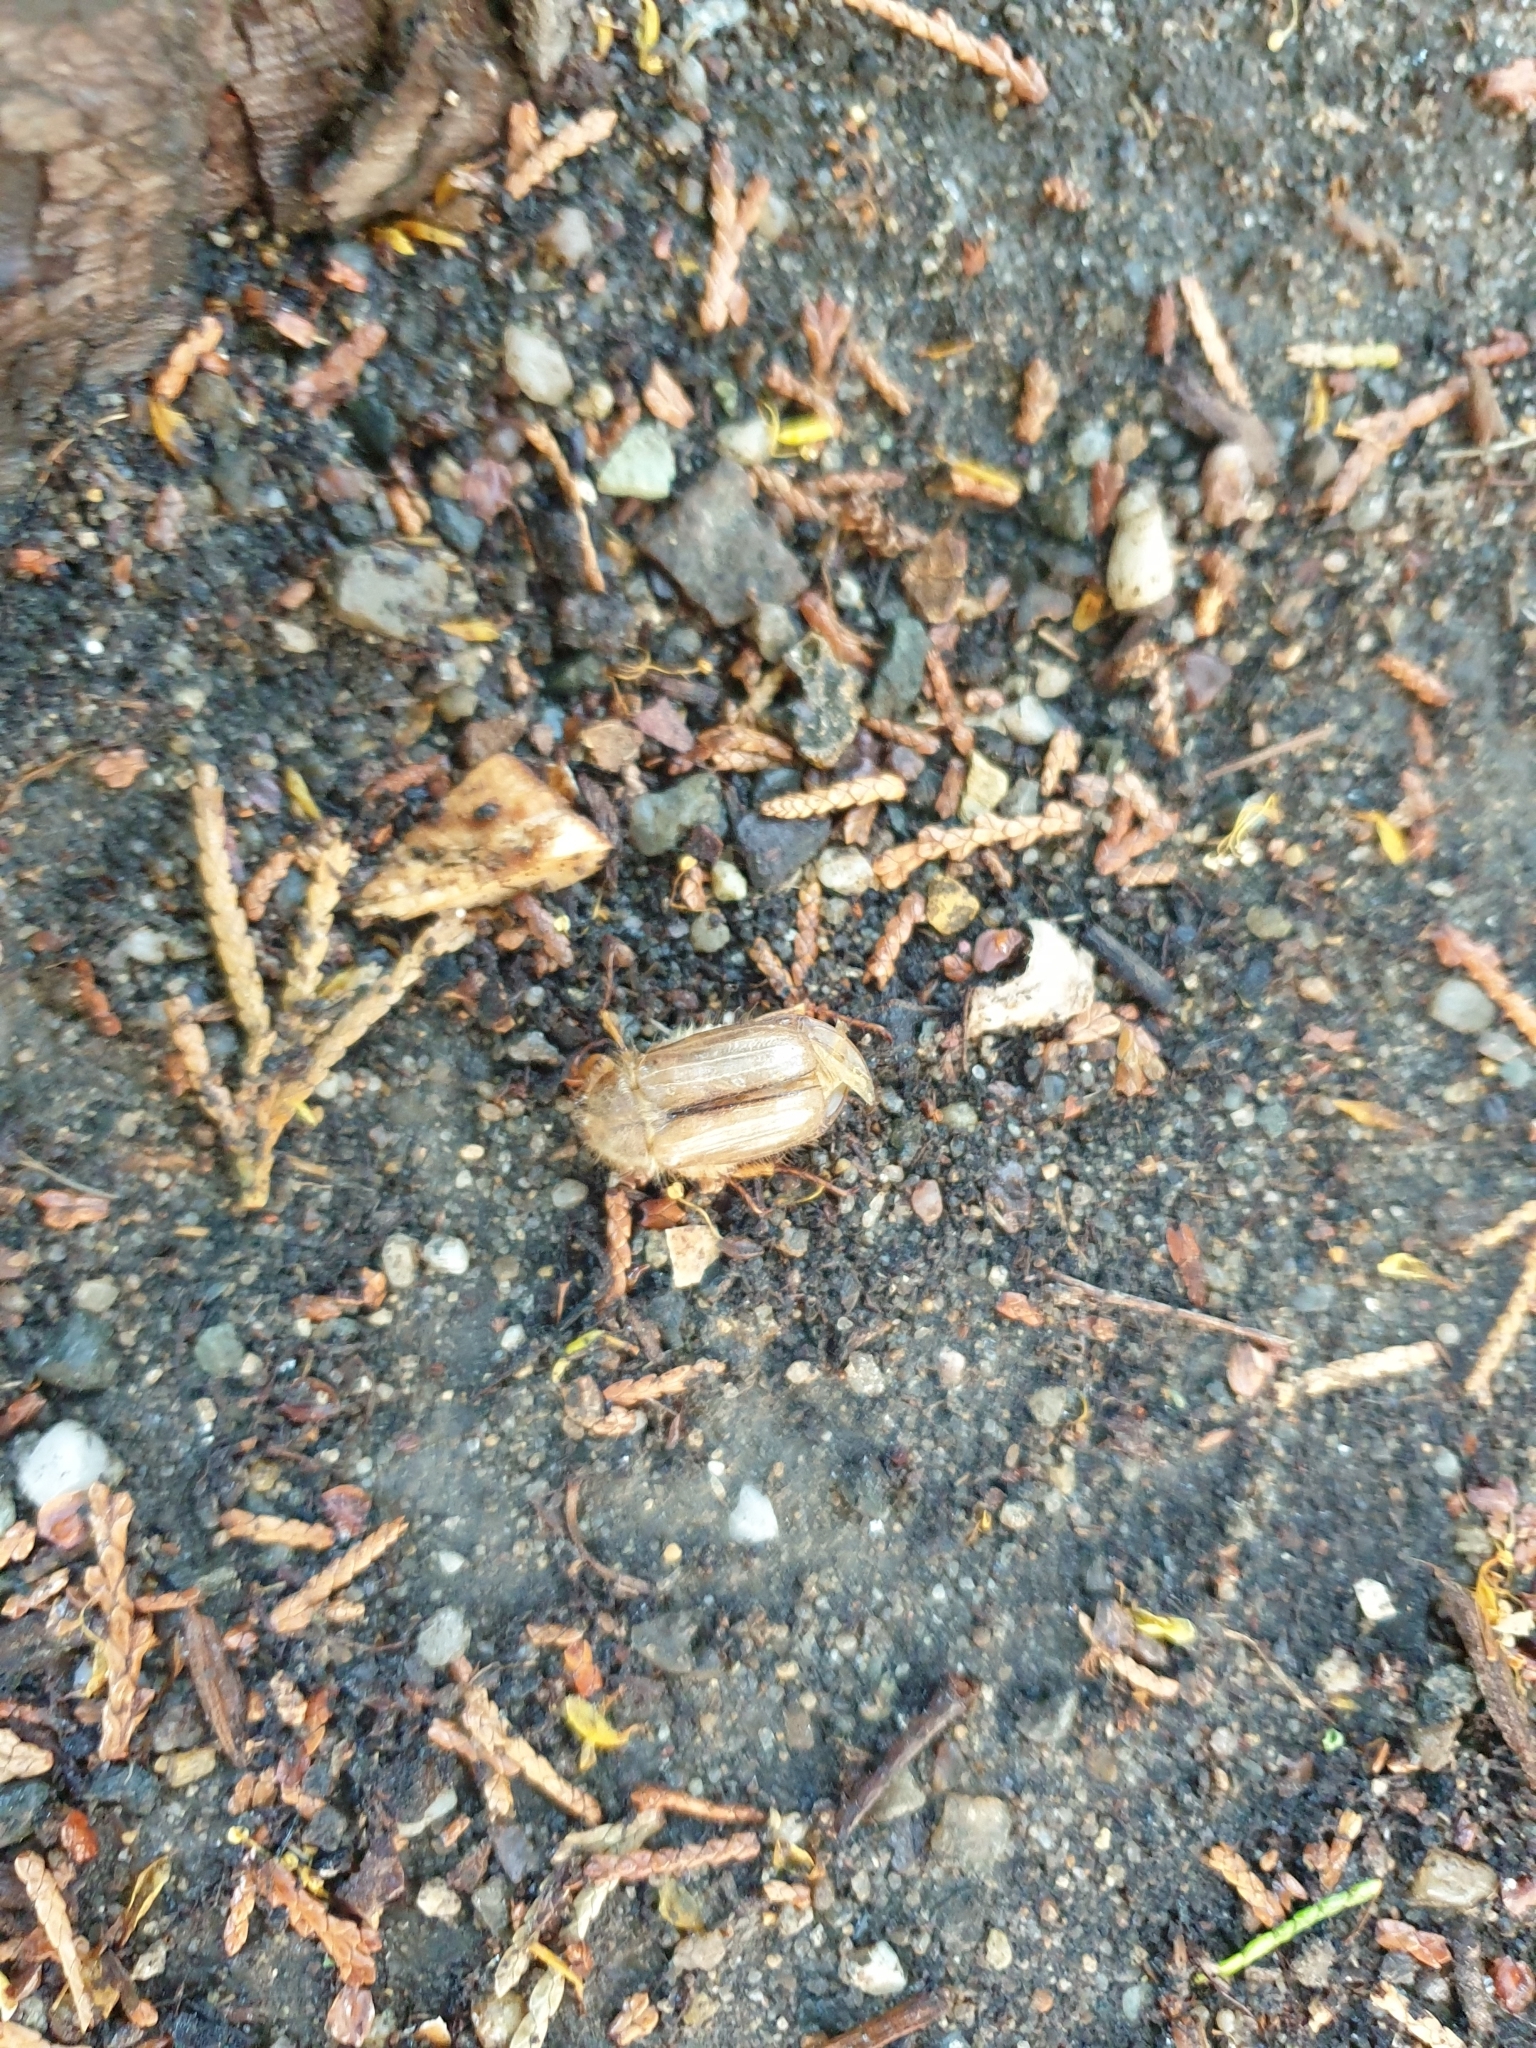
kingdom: Animalia
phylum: Arthropoda
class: Insecta
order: Coleoptera
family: Scarabaeidae
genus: Amphimallon
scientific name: Amphimallon solstitiale
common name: Summer chafer
